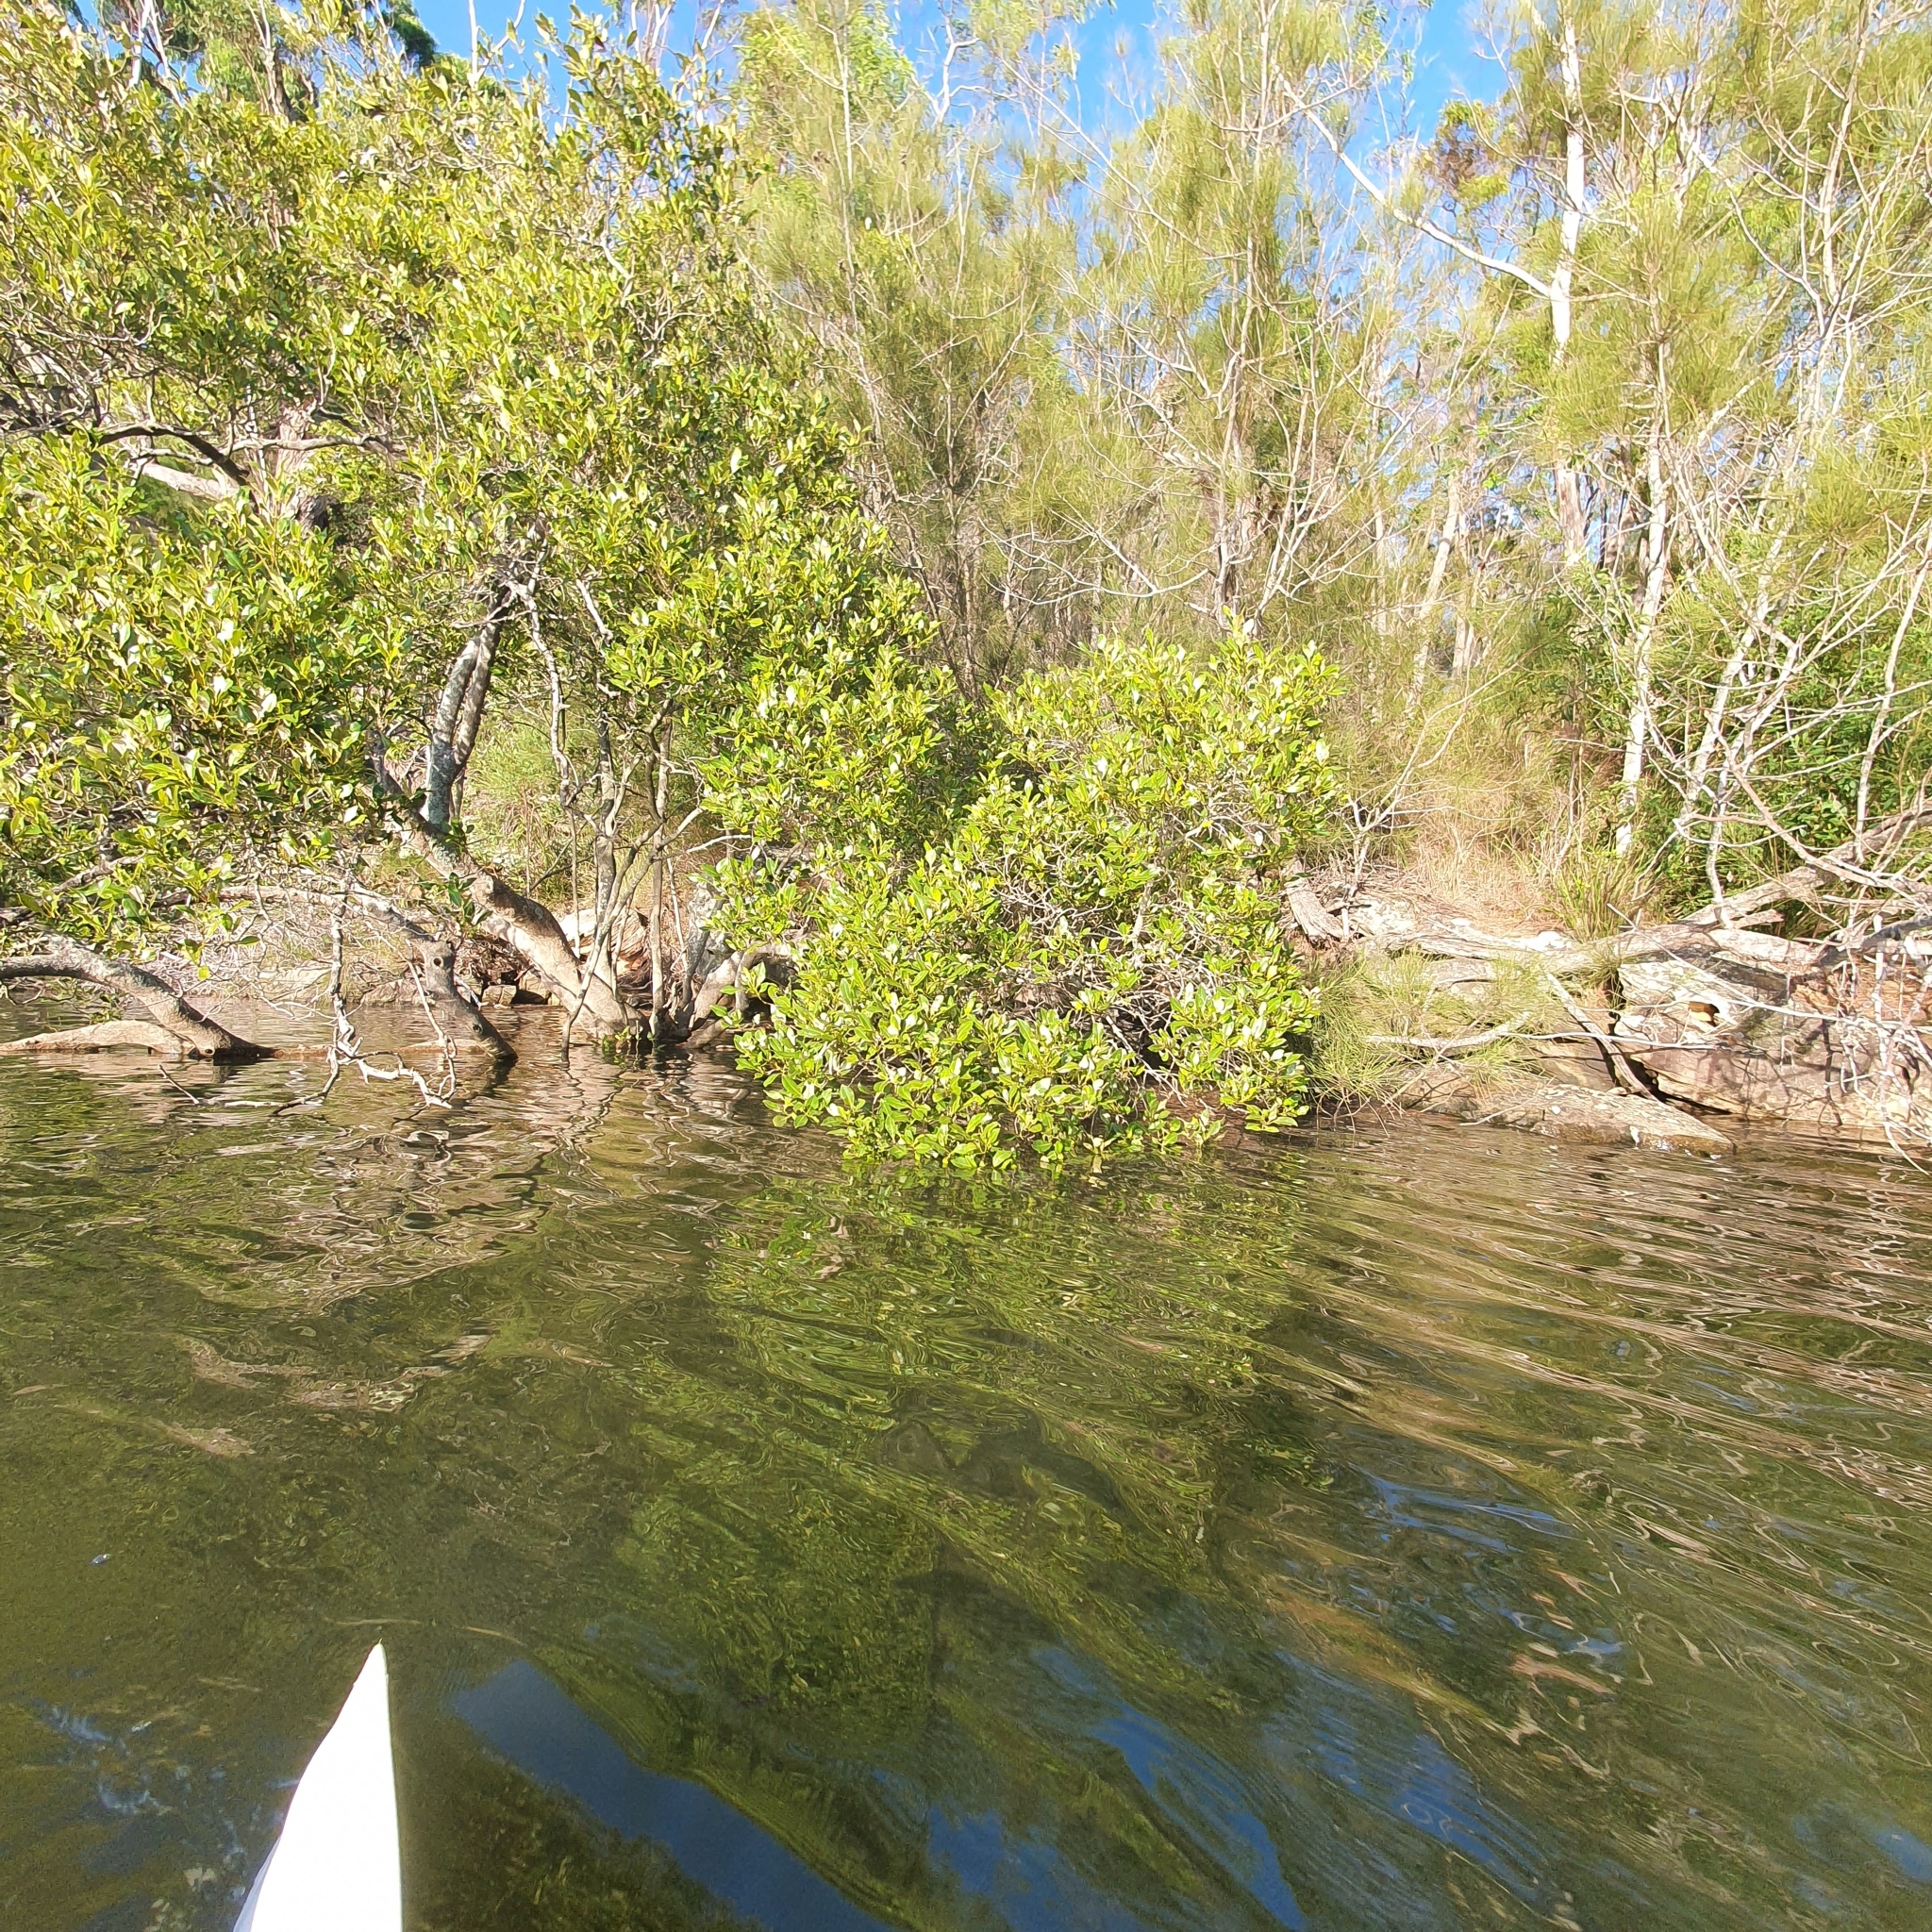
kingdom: Plantae
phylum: Tracheophyta
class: Magnoliopsida
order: Lamiales
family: Acanthaceae
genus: Avicennia
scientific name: Avicennia marina
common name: Gray mangrove
